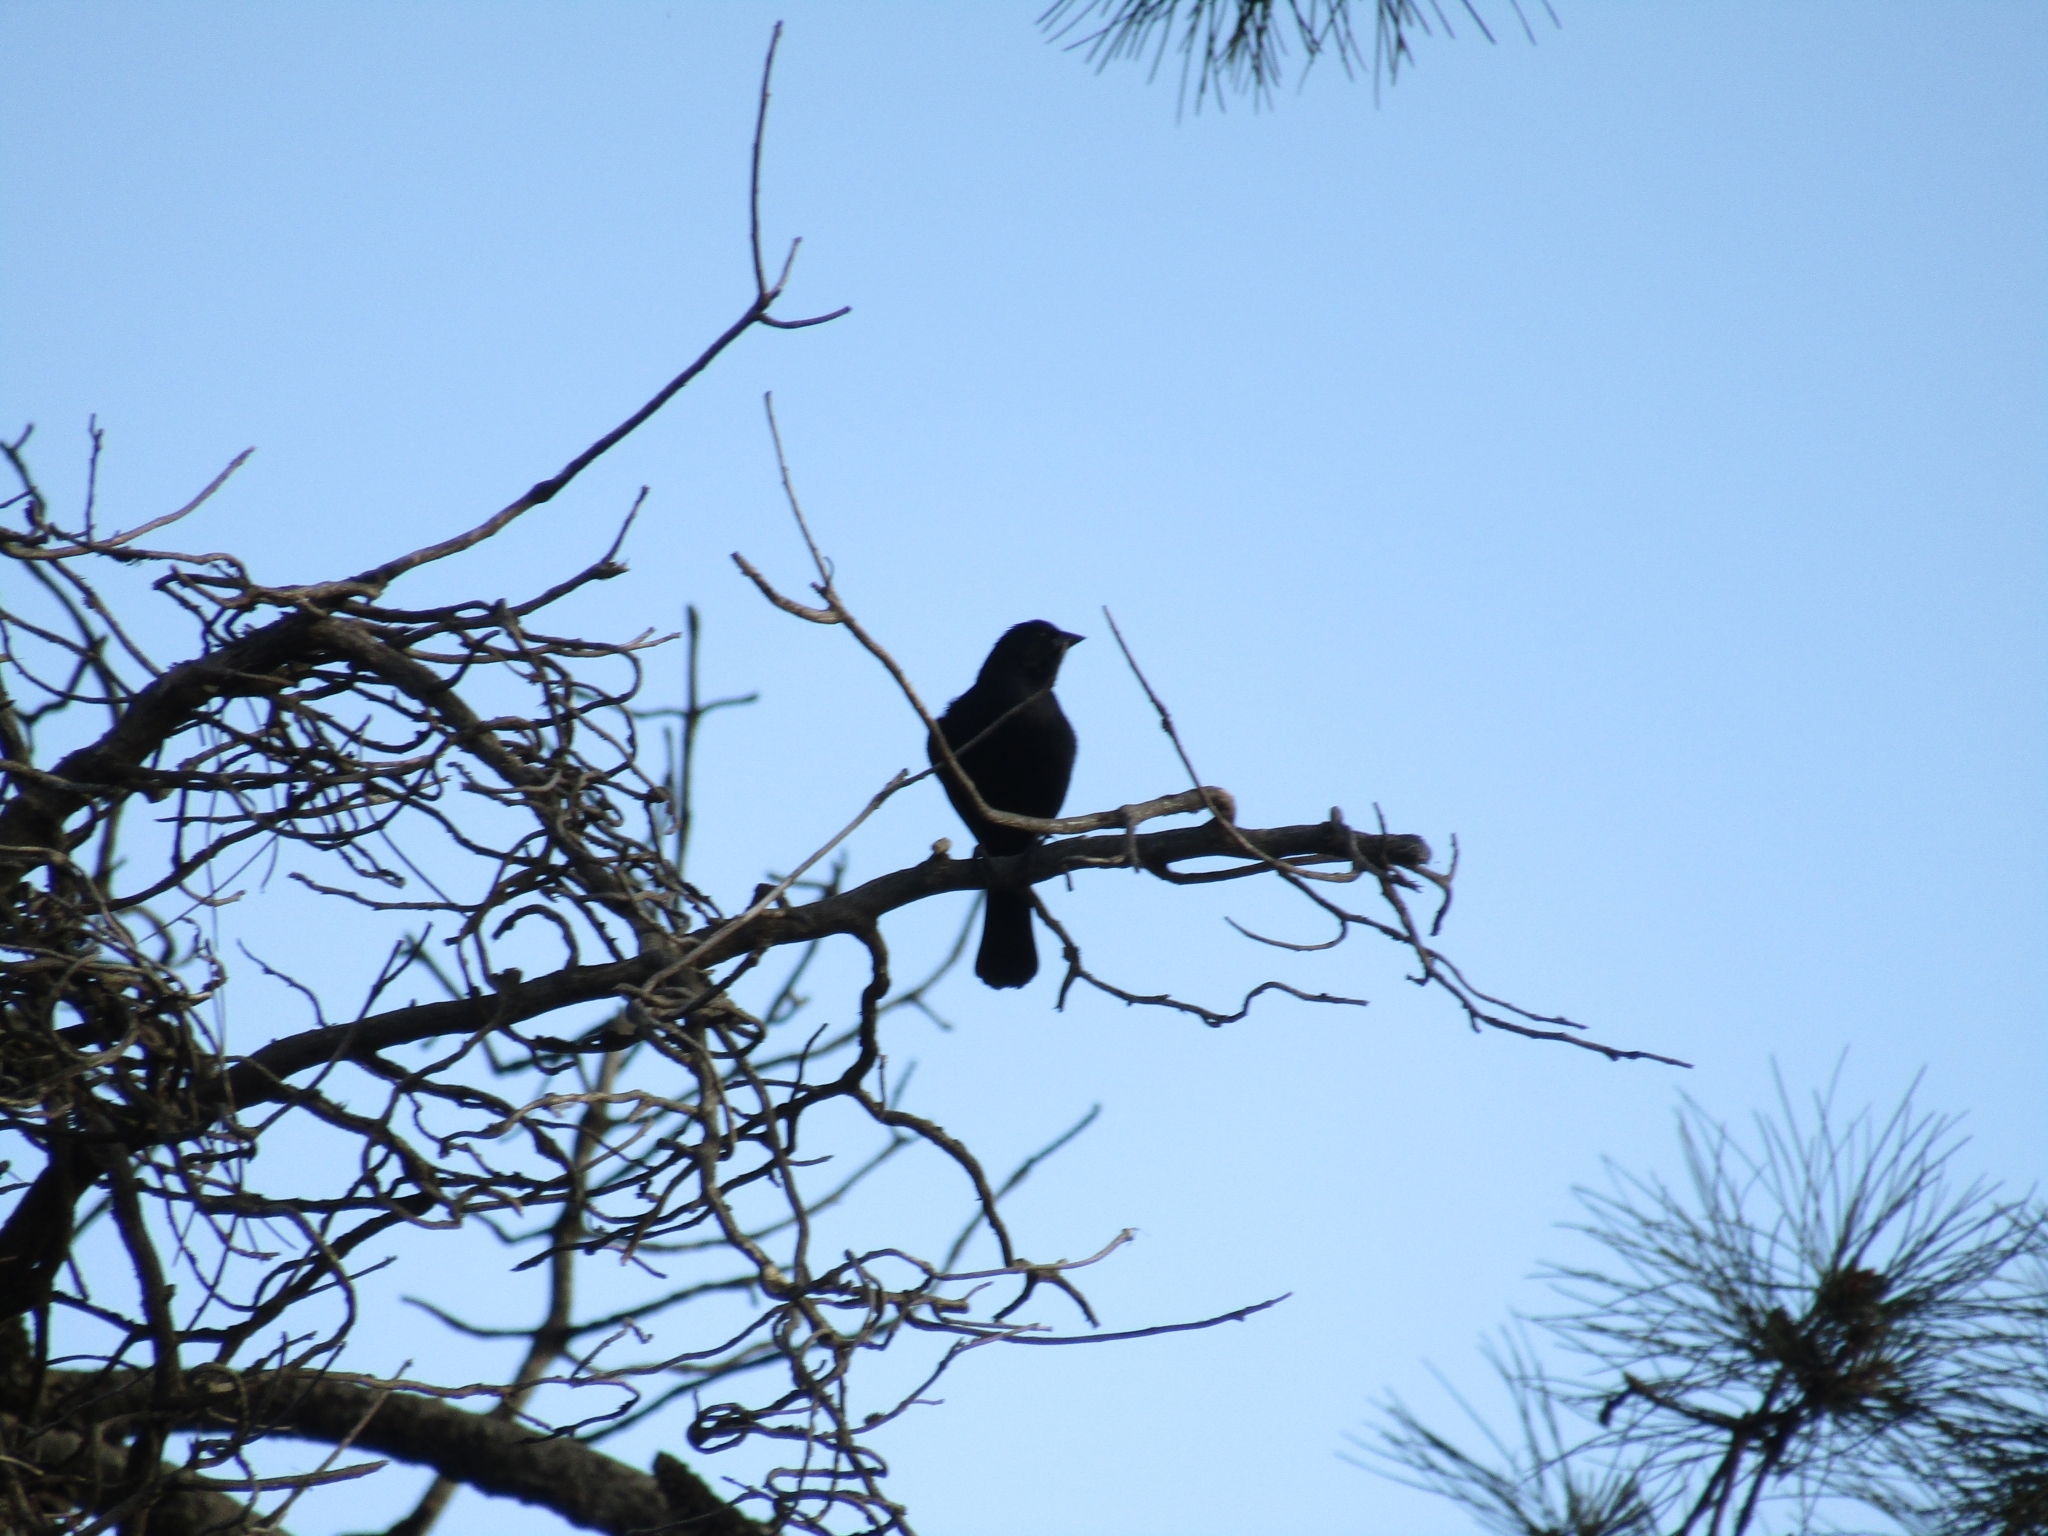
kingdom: Animalia
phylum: Chordata
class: Aves
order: Passeriformes
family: Icteridae
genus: Molothrus
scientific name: Molothrus bonariensis
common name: Shiny cowbird
